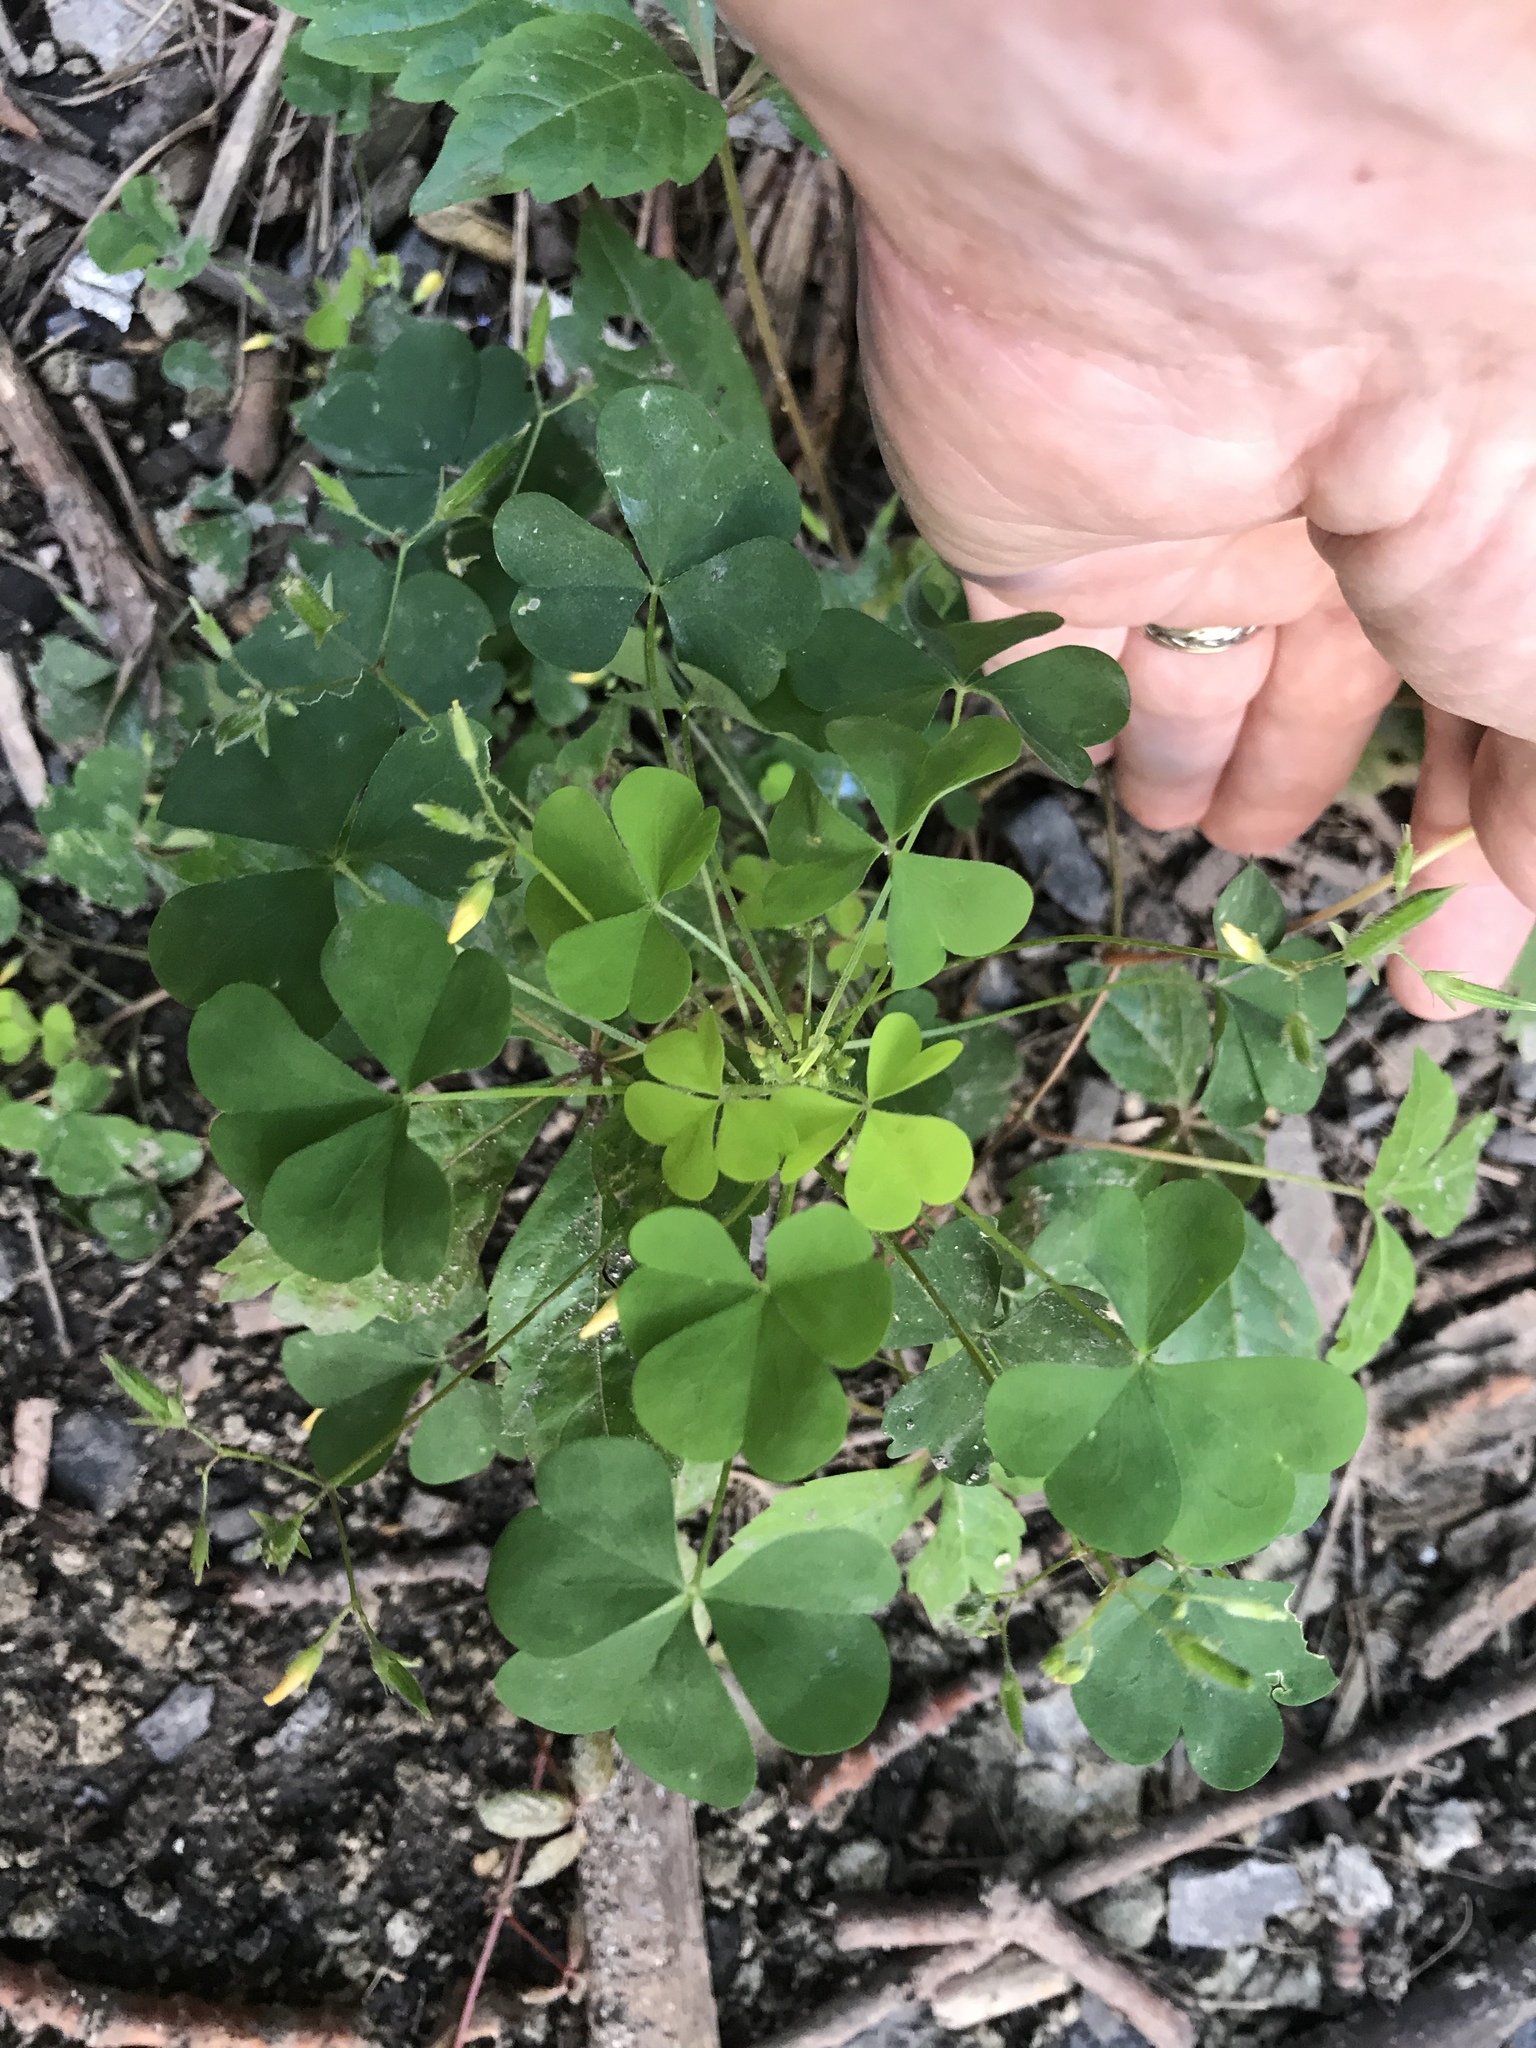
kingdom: Plantae
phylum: Tracheophyta
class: Magnoliopsida
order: Oxalidales
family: Oxalidaceae
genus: Oxalis
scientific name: Oxalis stricta
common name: Upright yellow-sorrel
